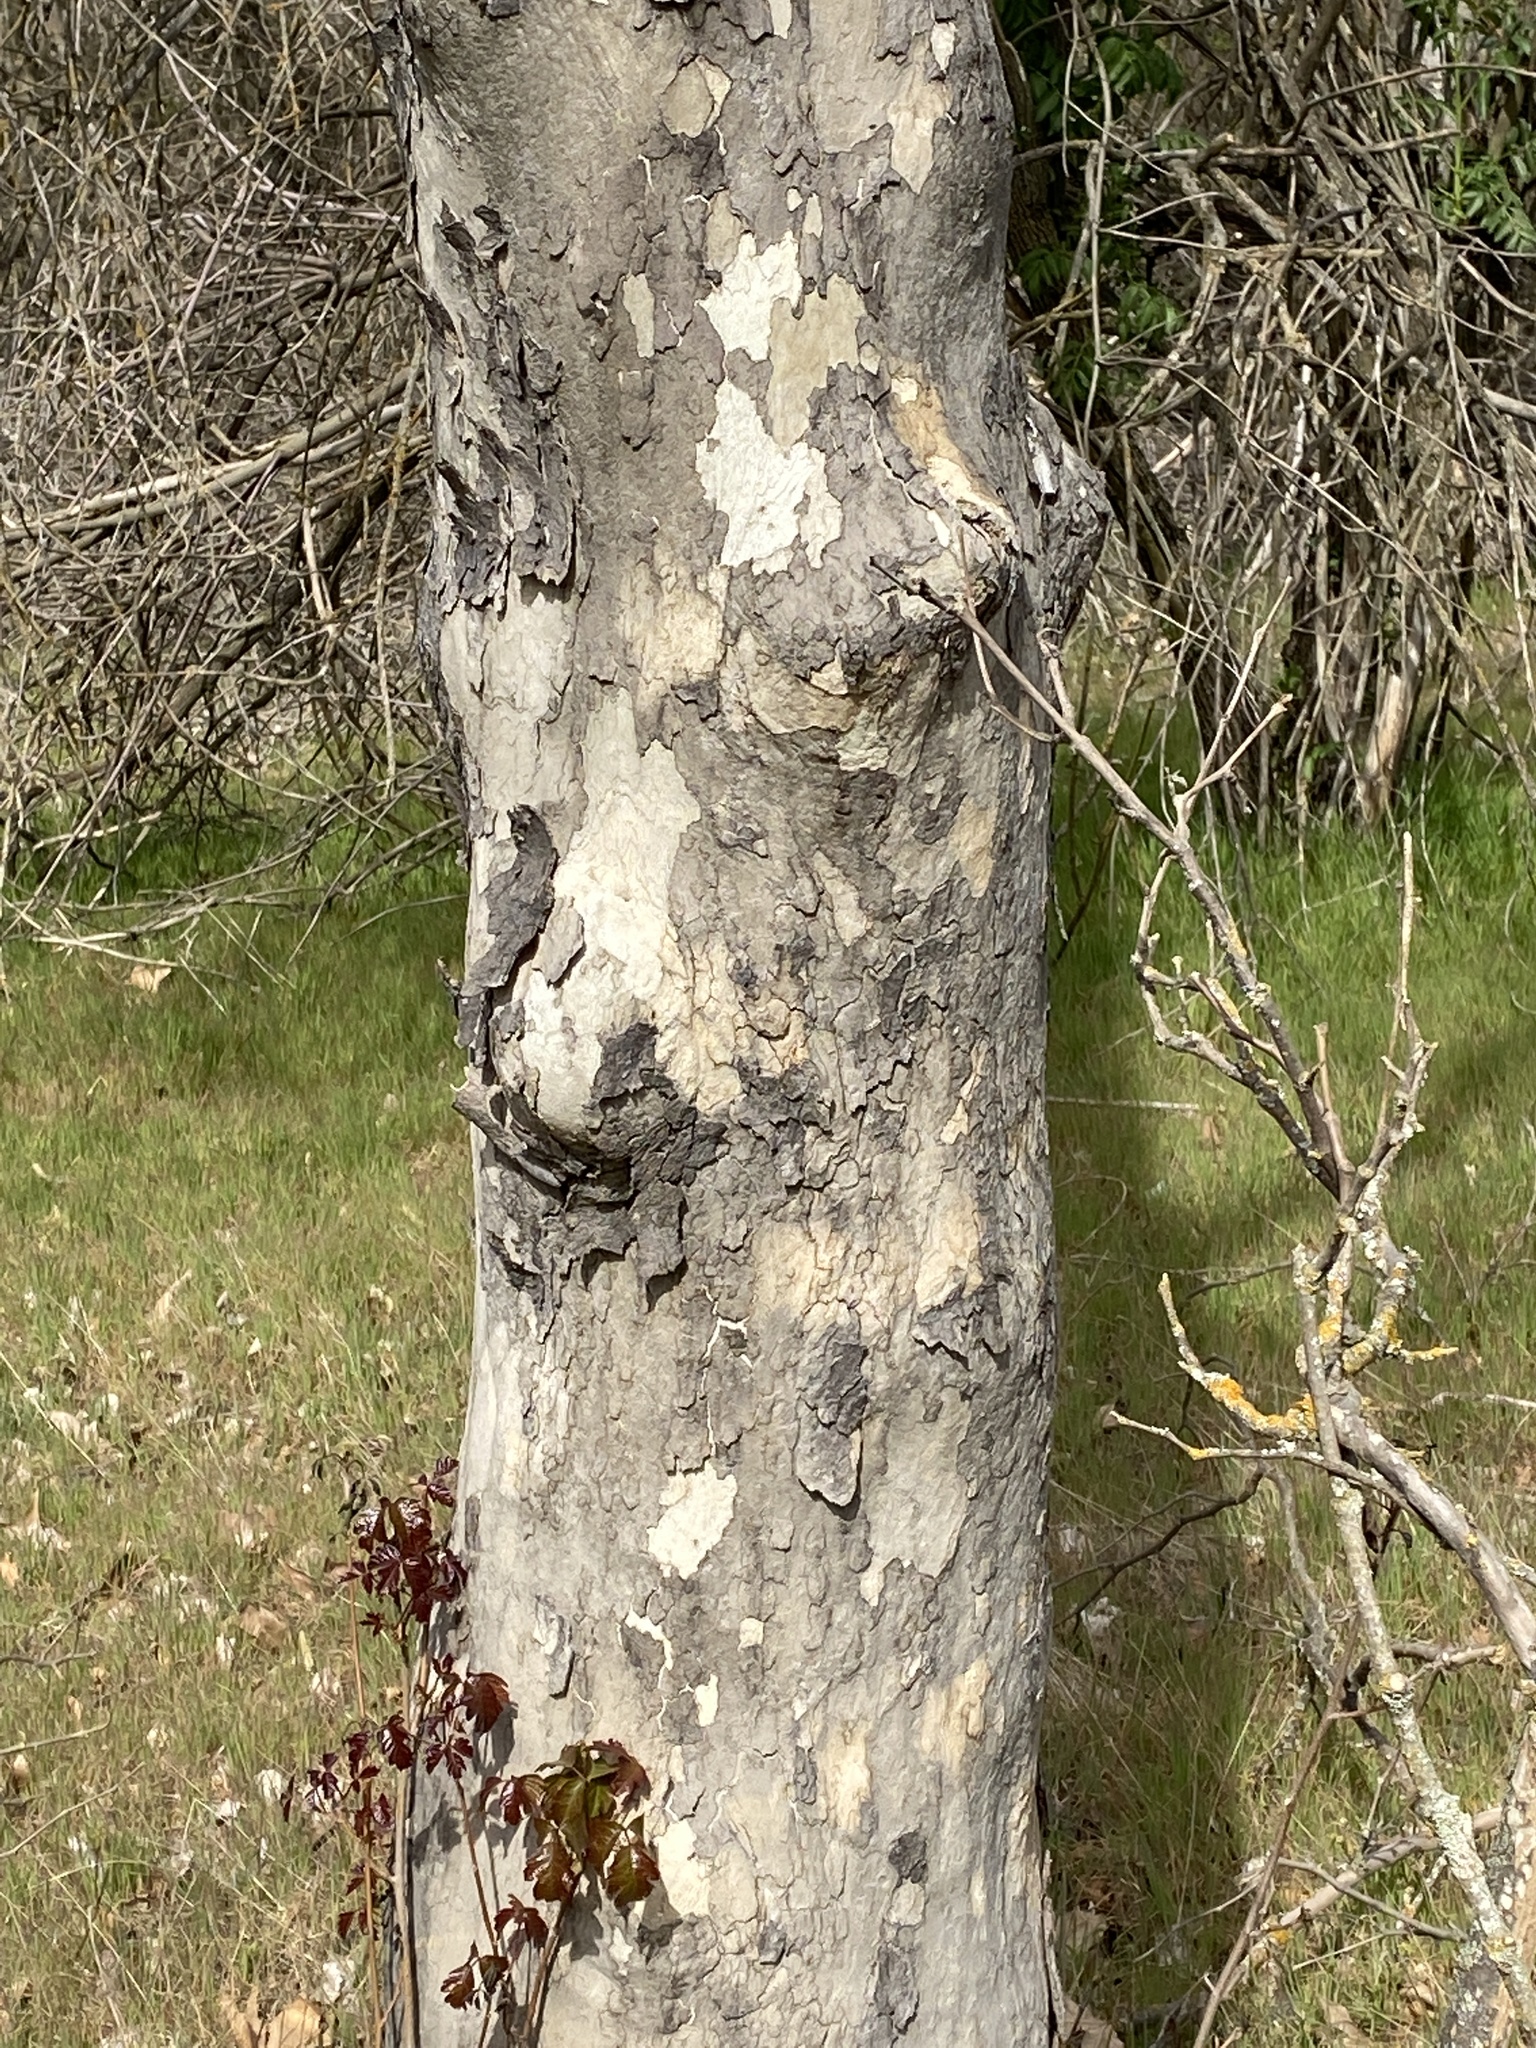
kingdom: Plantae
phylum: Tracheophyta
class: Magnoliopsida
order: Proteales
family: Platanaceae
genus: Platanus
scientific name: Platanus racemosa
